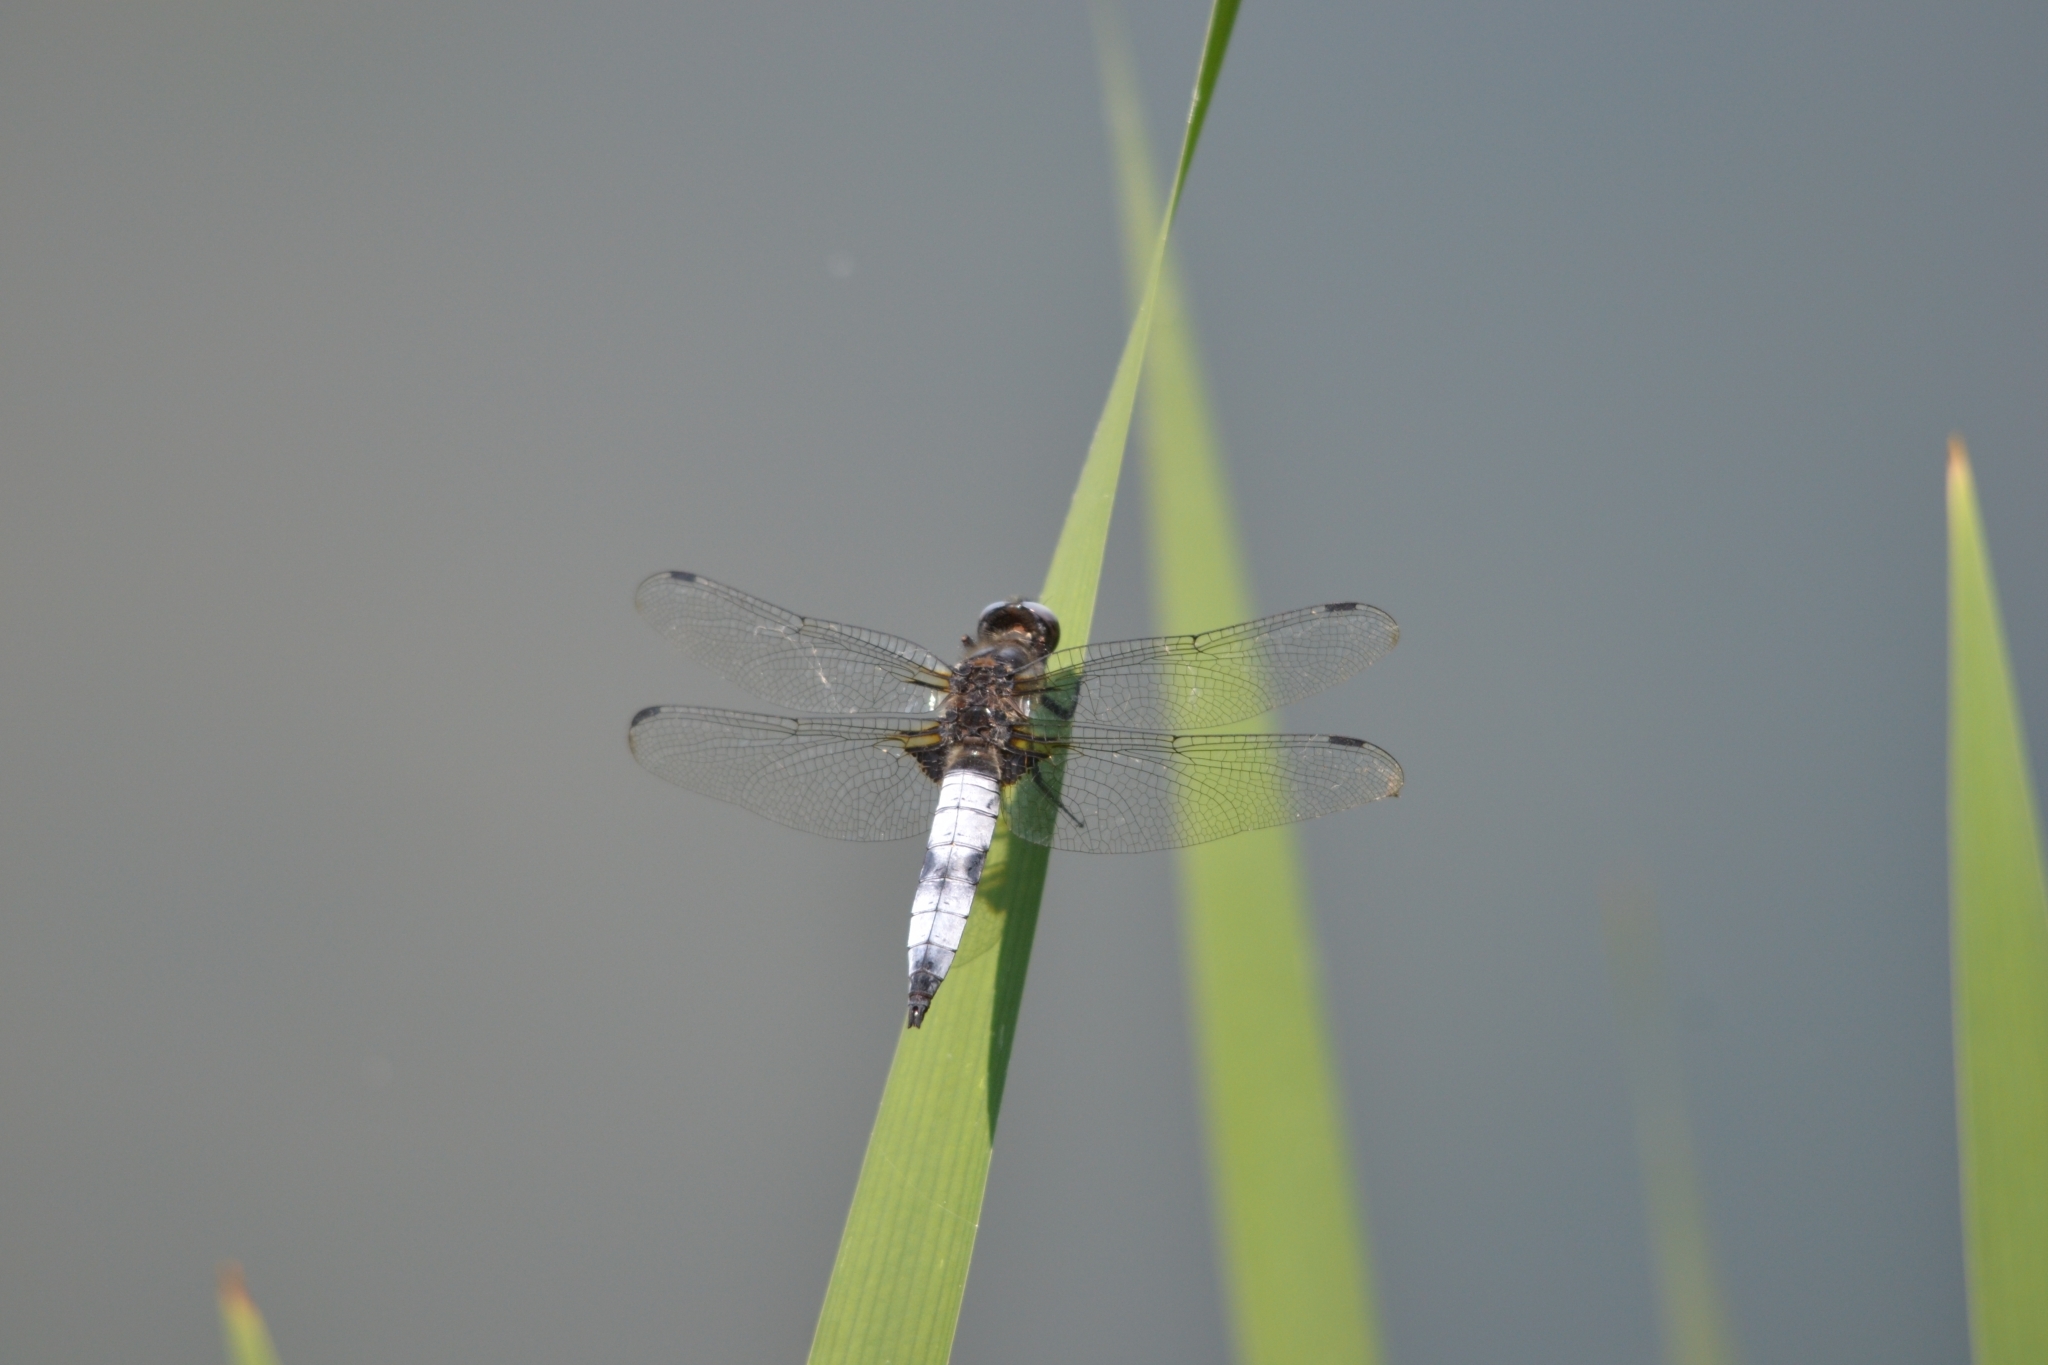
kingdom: Animalia
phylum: Arthropoda
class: Insecta
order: Odonata
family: Libellulidae
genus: Libellula
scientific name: Libellula fulva
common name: Blue chaser
